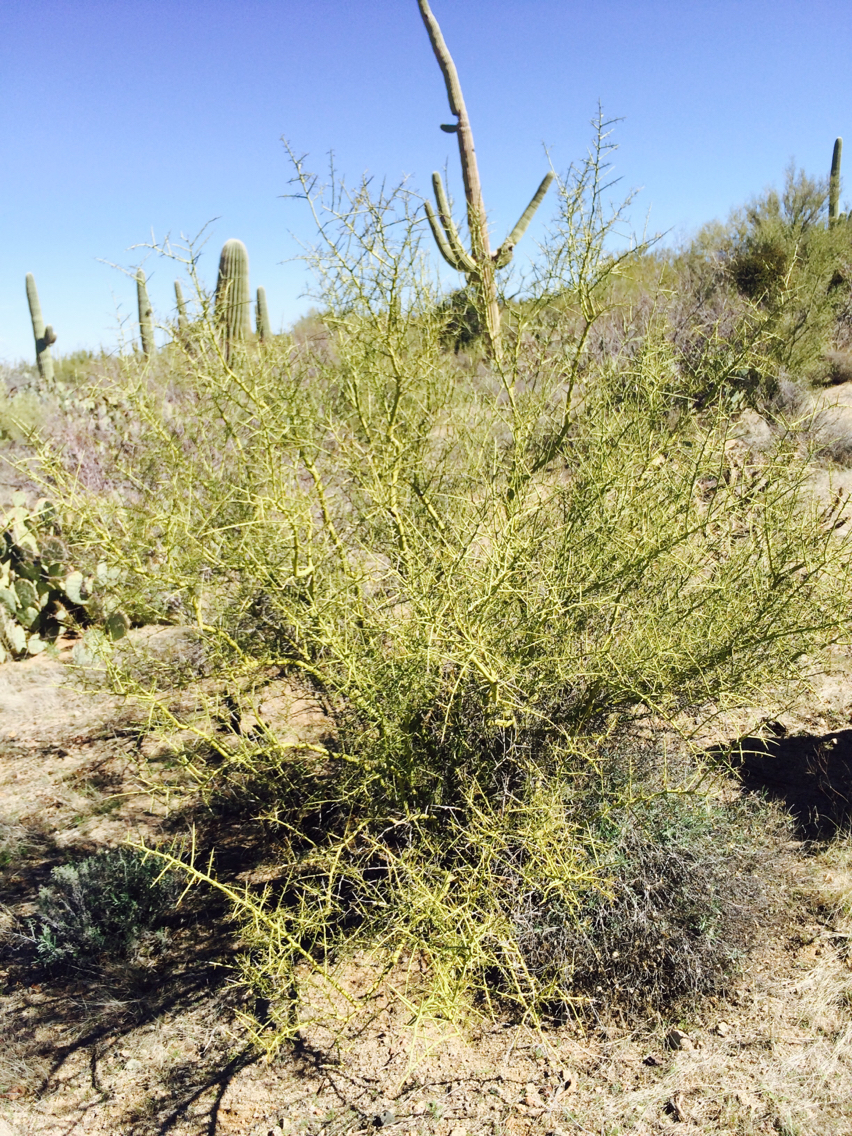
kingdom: Plantae
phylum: Tracheophyta
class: Magnoliopsida
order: Brassicales
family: Koeberliniaceae
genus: Koeberlinia
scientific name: Koeberlinia spinosa
